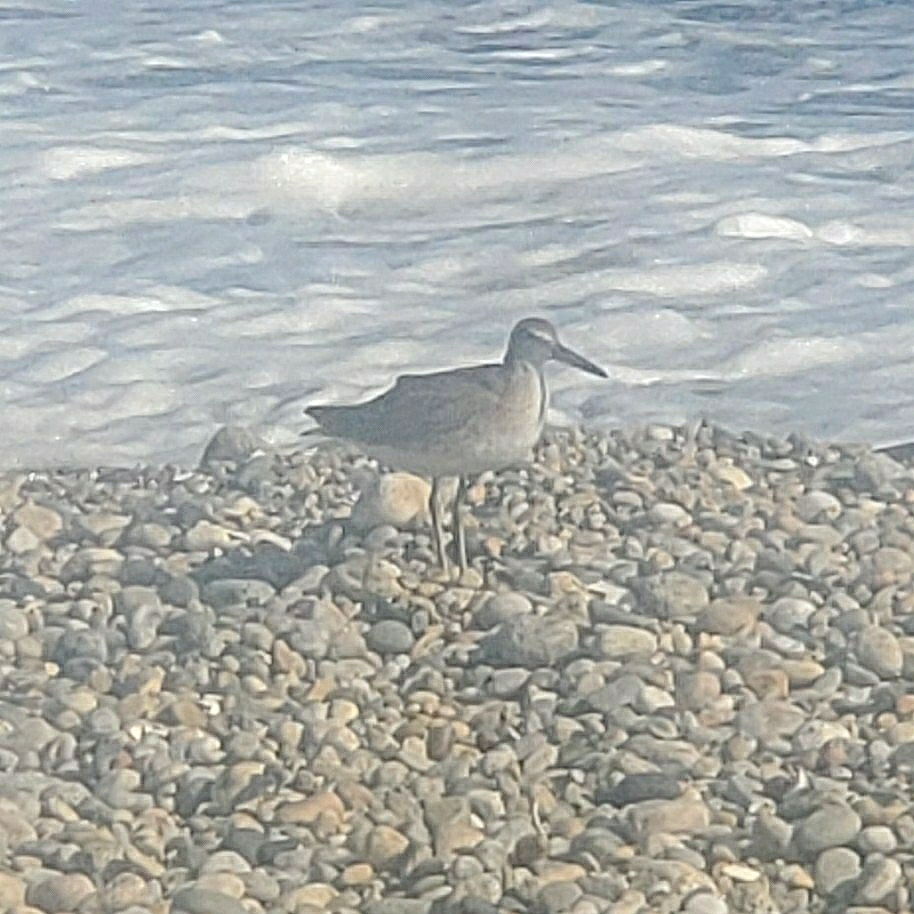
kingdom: Animalia
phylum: Chordata
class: Aves
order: Charadriiformes
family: Scolopacidae
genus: Tringa
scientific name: Tringa semipalmata
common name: Willet
